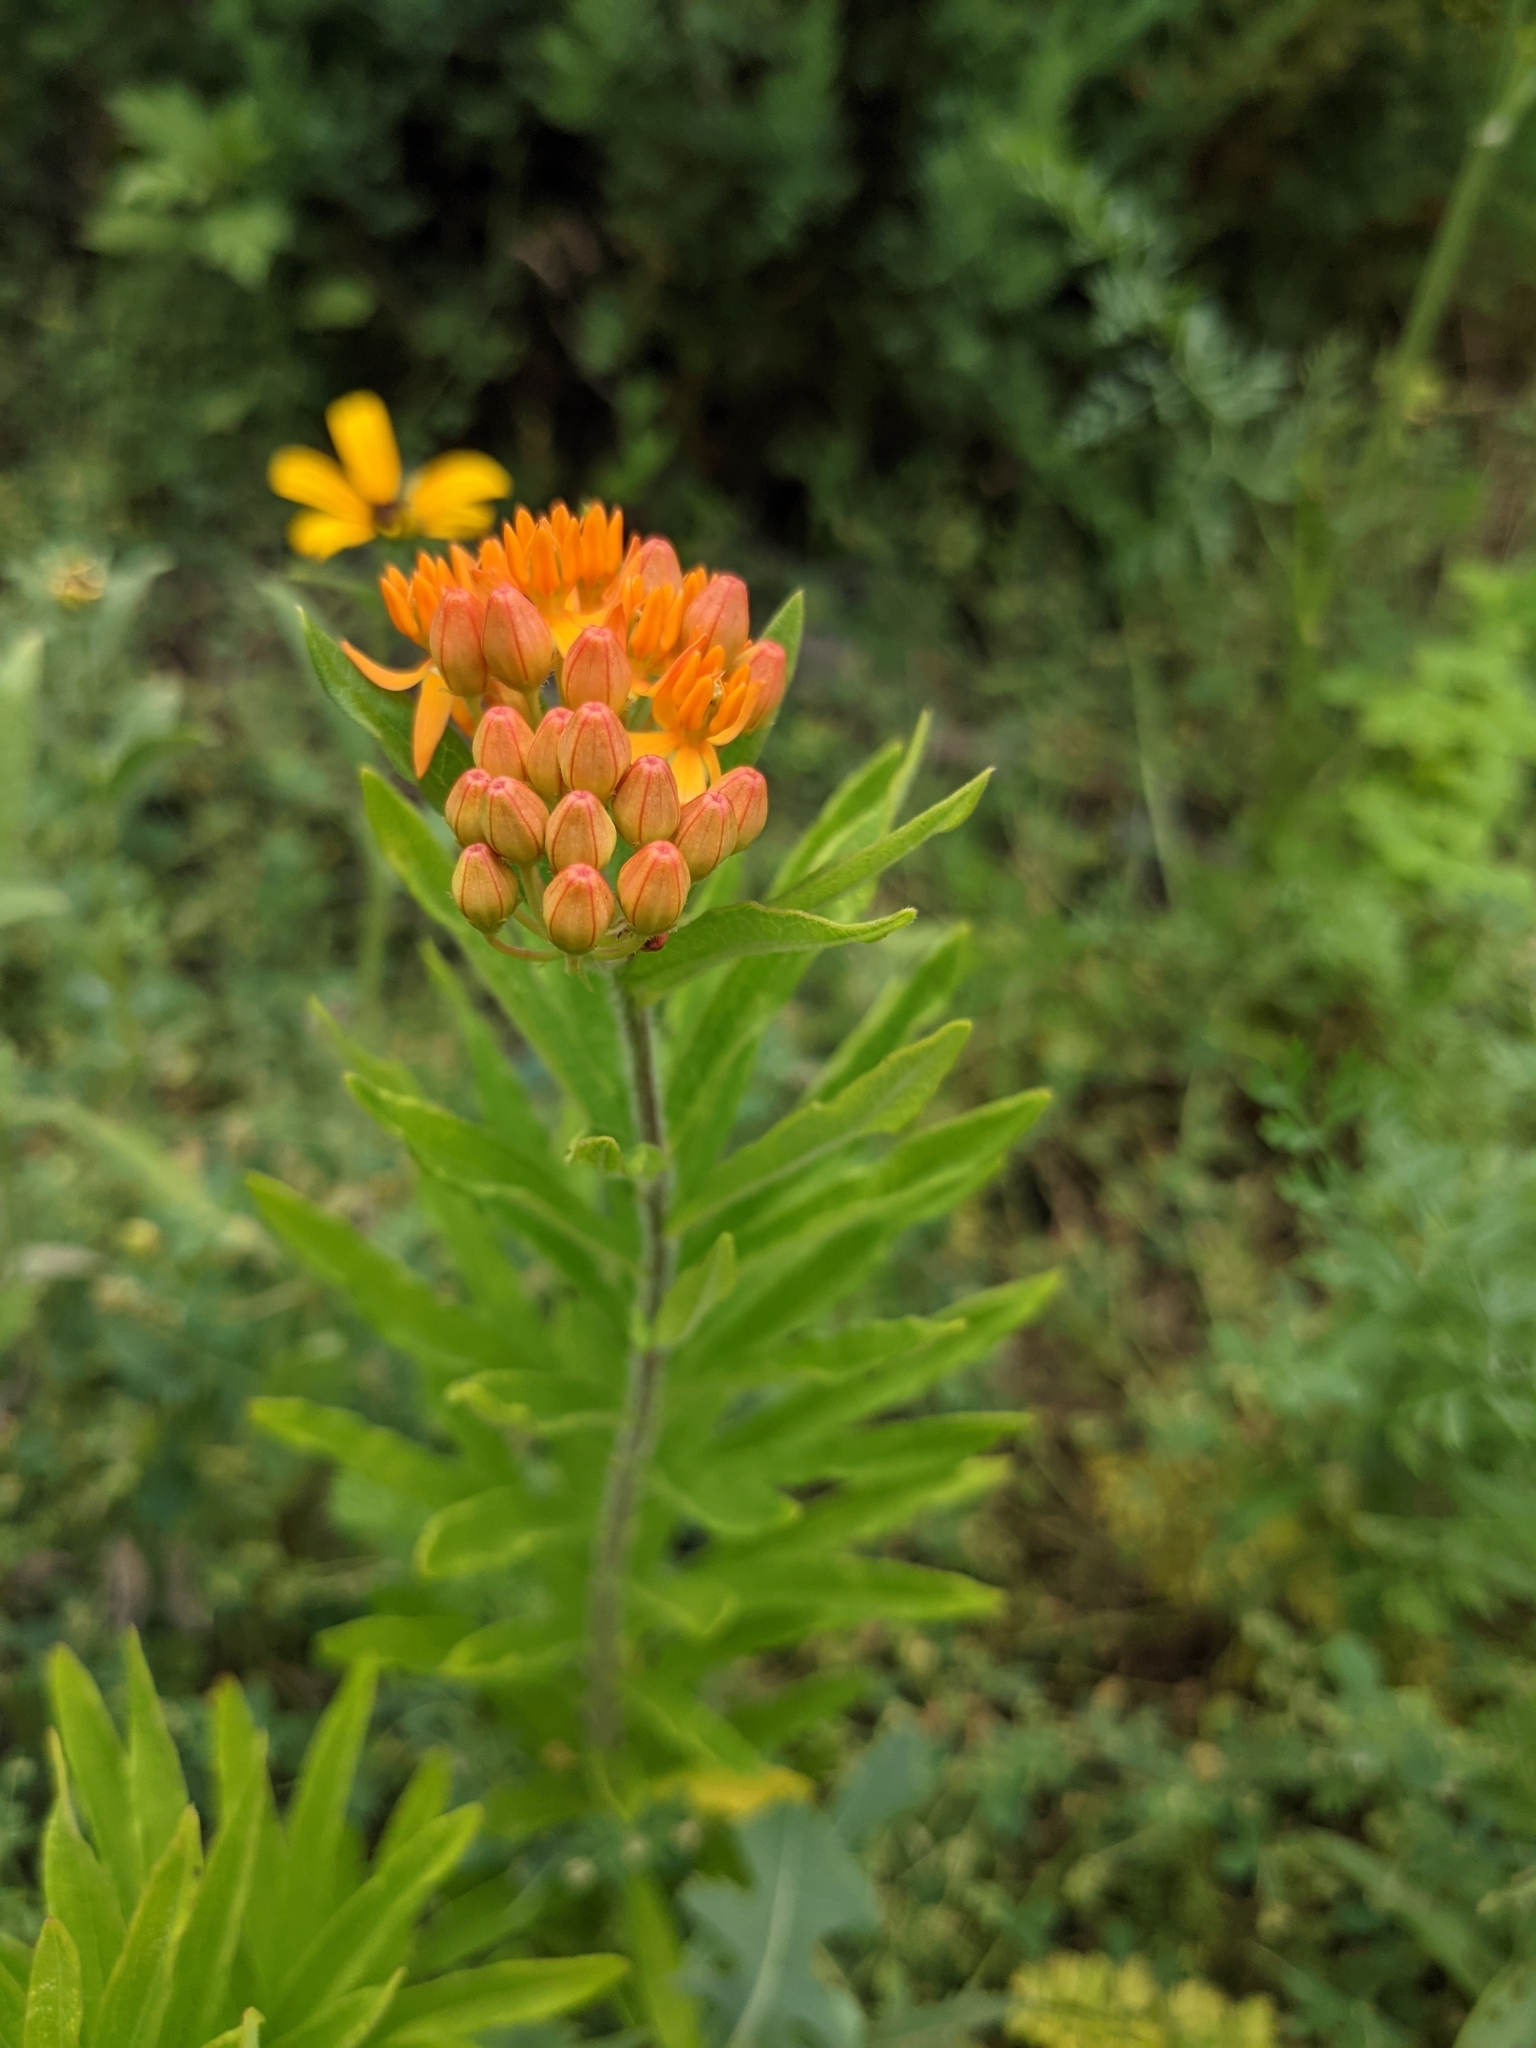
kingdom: Plantae
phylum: Tracheophyta
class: Magnoliopsida
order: Gentianales
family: Apocynaceae
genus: Asclepias
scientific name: Asclepias tuberosa
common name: Butterfly milkweed
